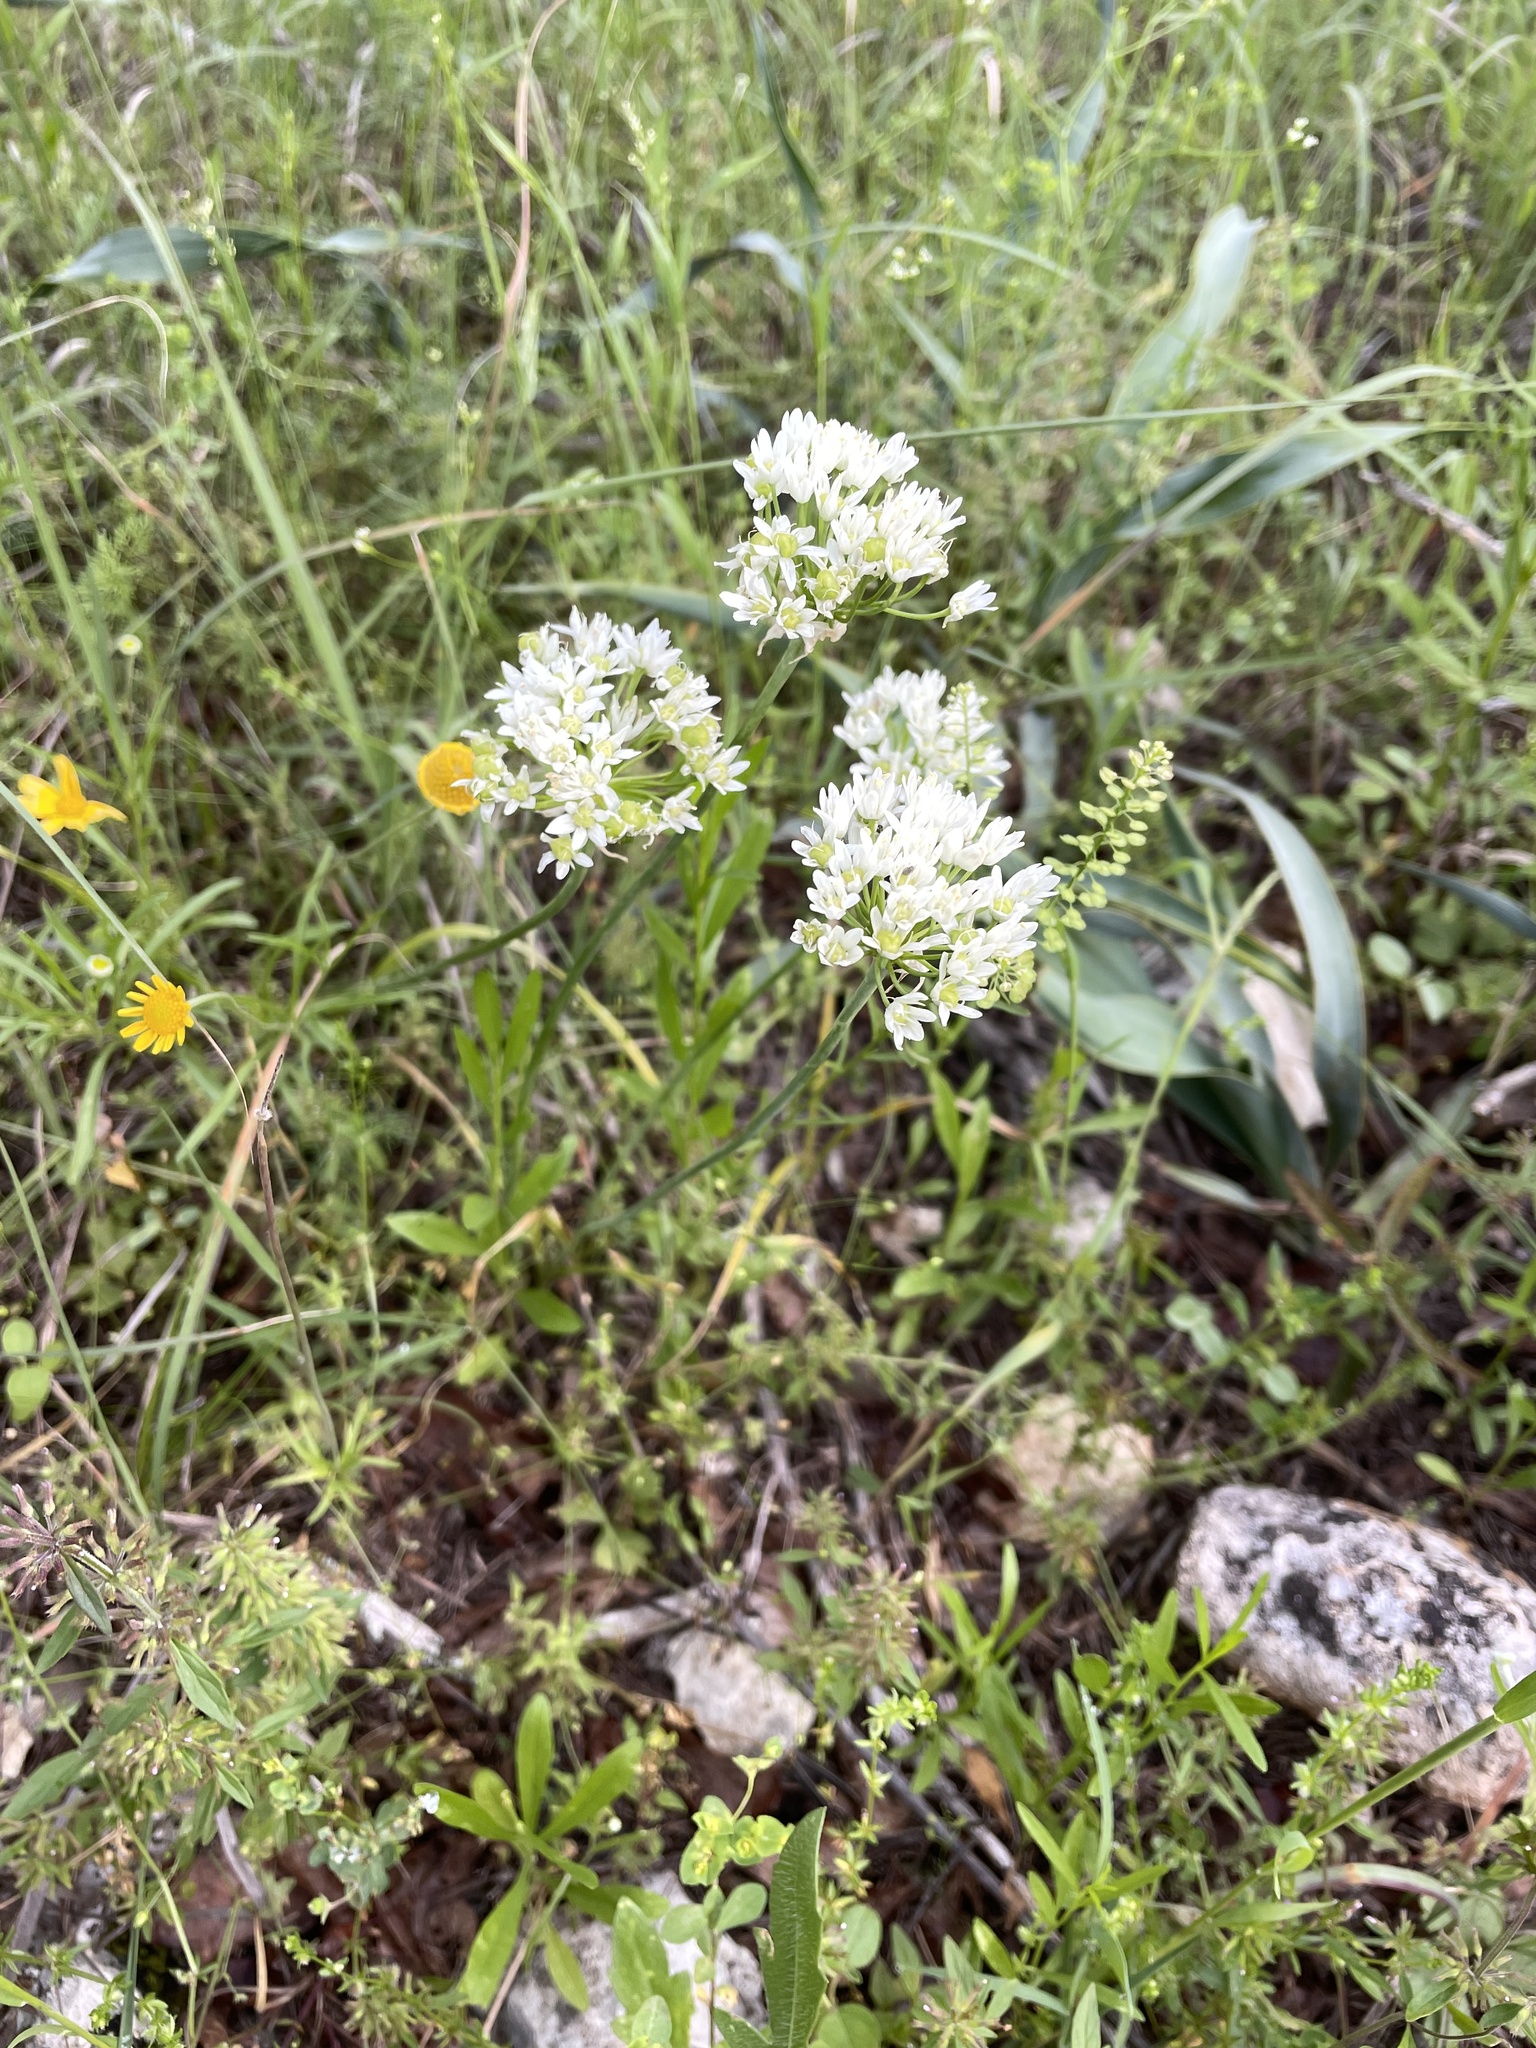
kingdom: Plantae
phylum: Tracheophyta
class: Liliopsida
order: Asparagales
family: Amaryllidaceae
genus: Allium
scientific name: Allium fraseri
